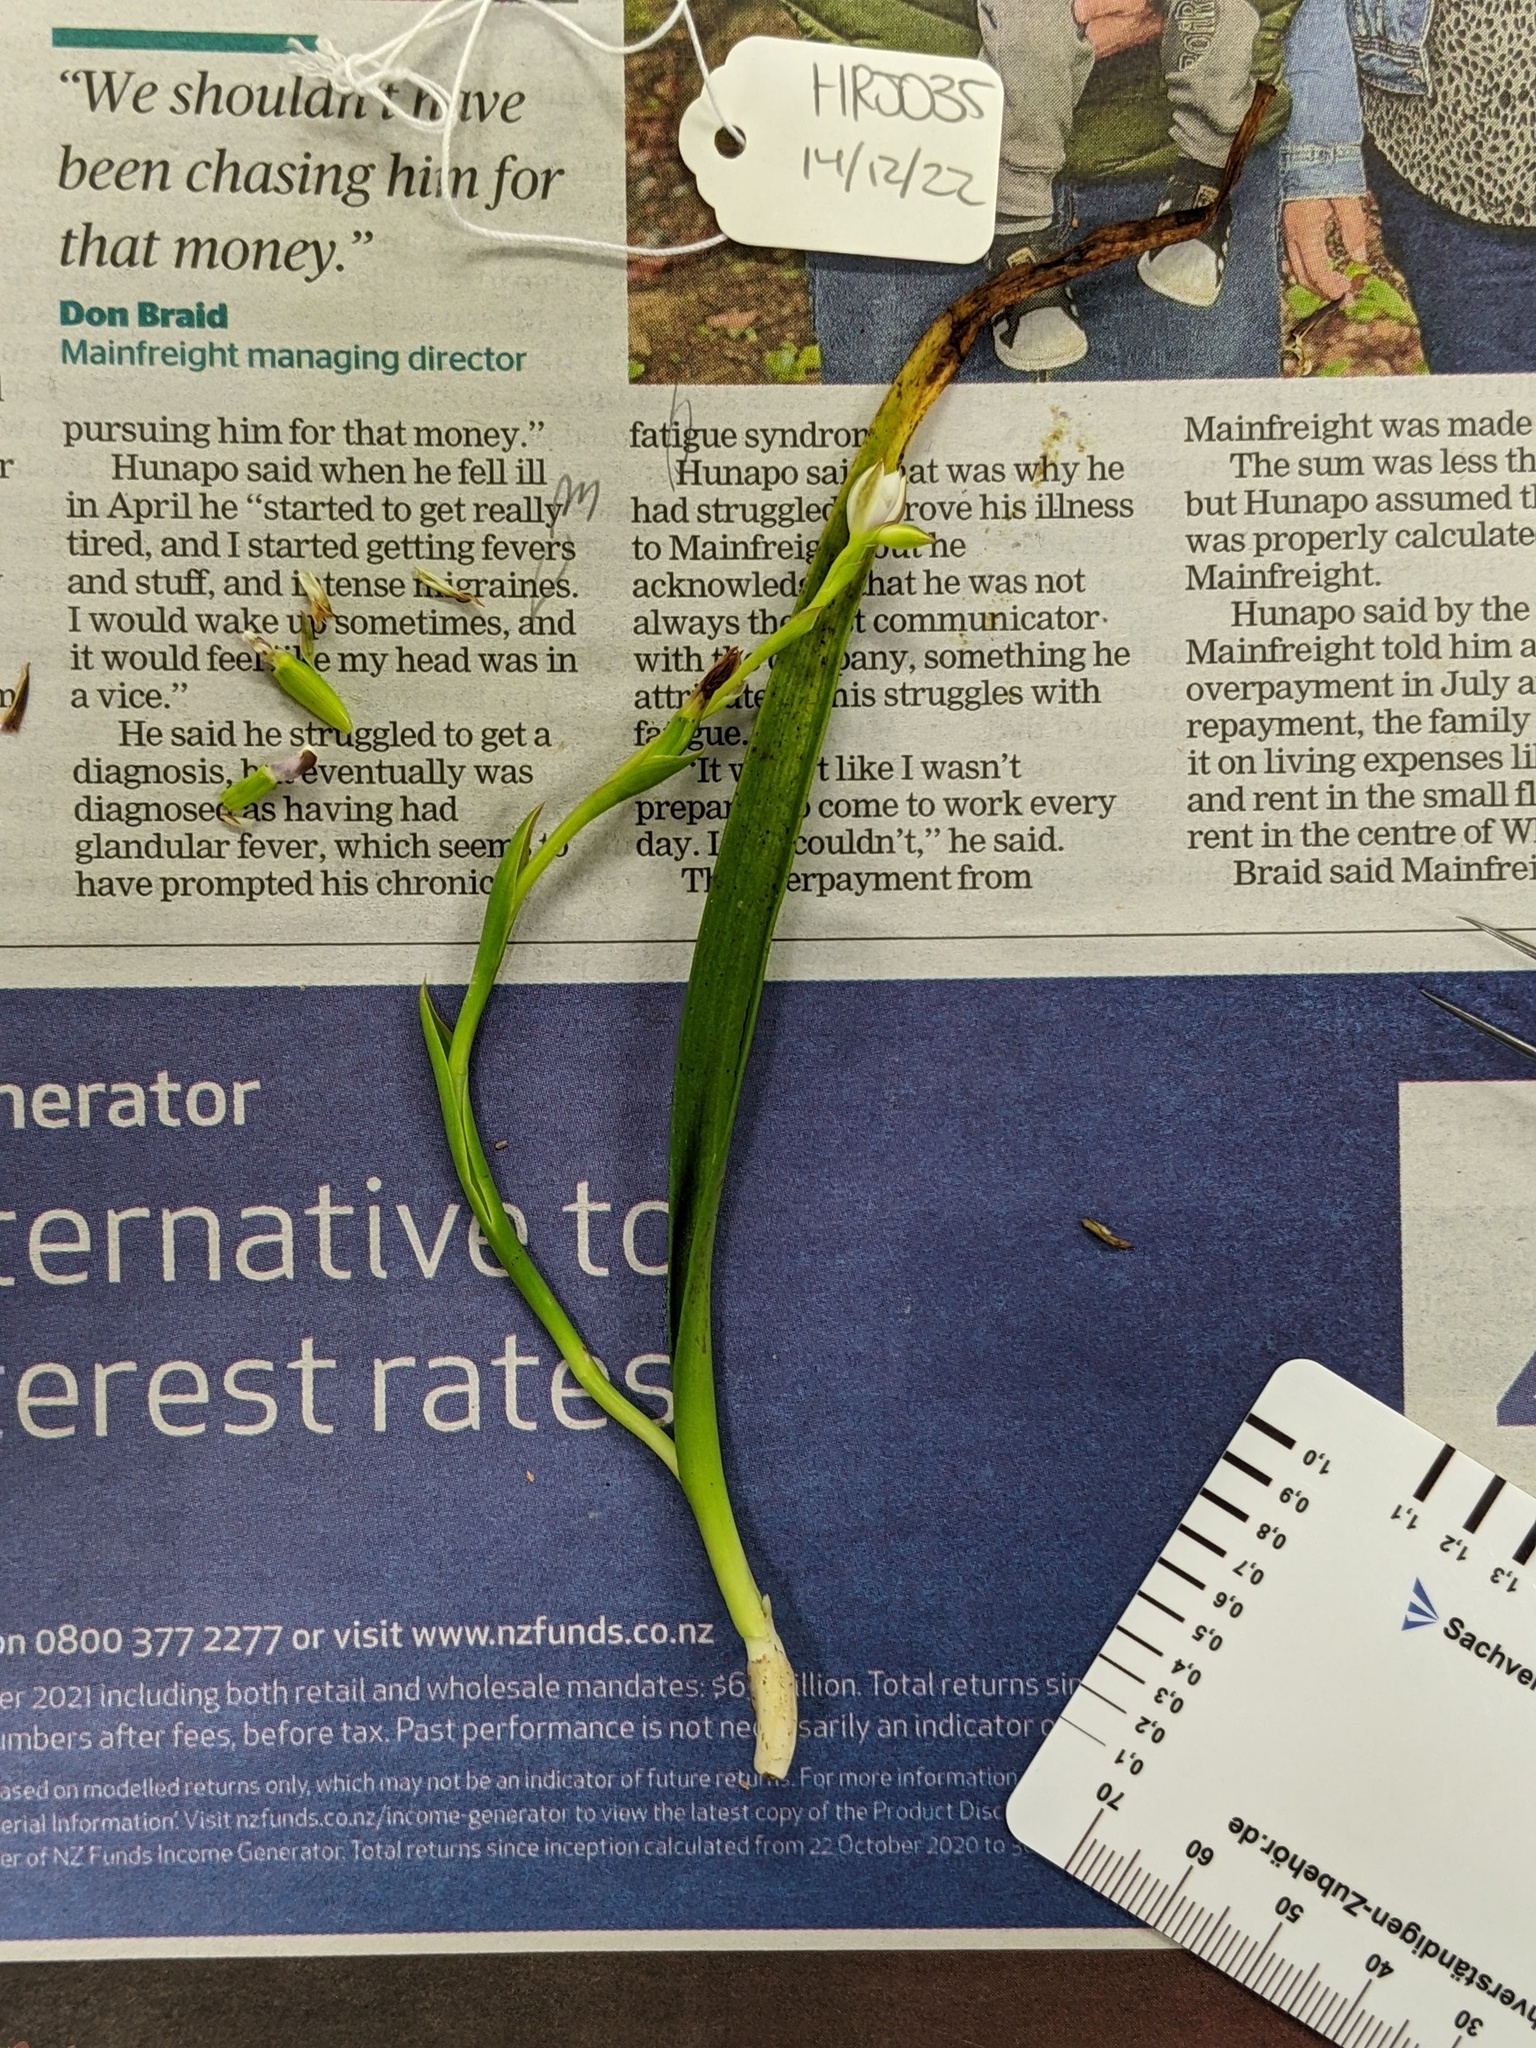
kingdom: Plantae
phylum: Tracheophyta
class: Liliopsida
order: Asparagales
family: Orchidaceae
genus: Thelymitra
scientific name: Thelymitra longifolia
